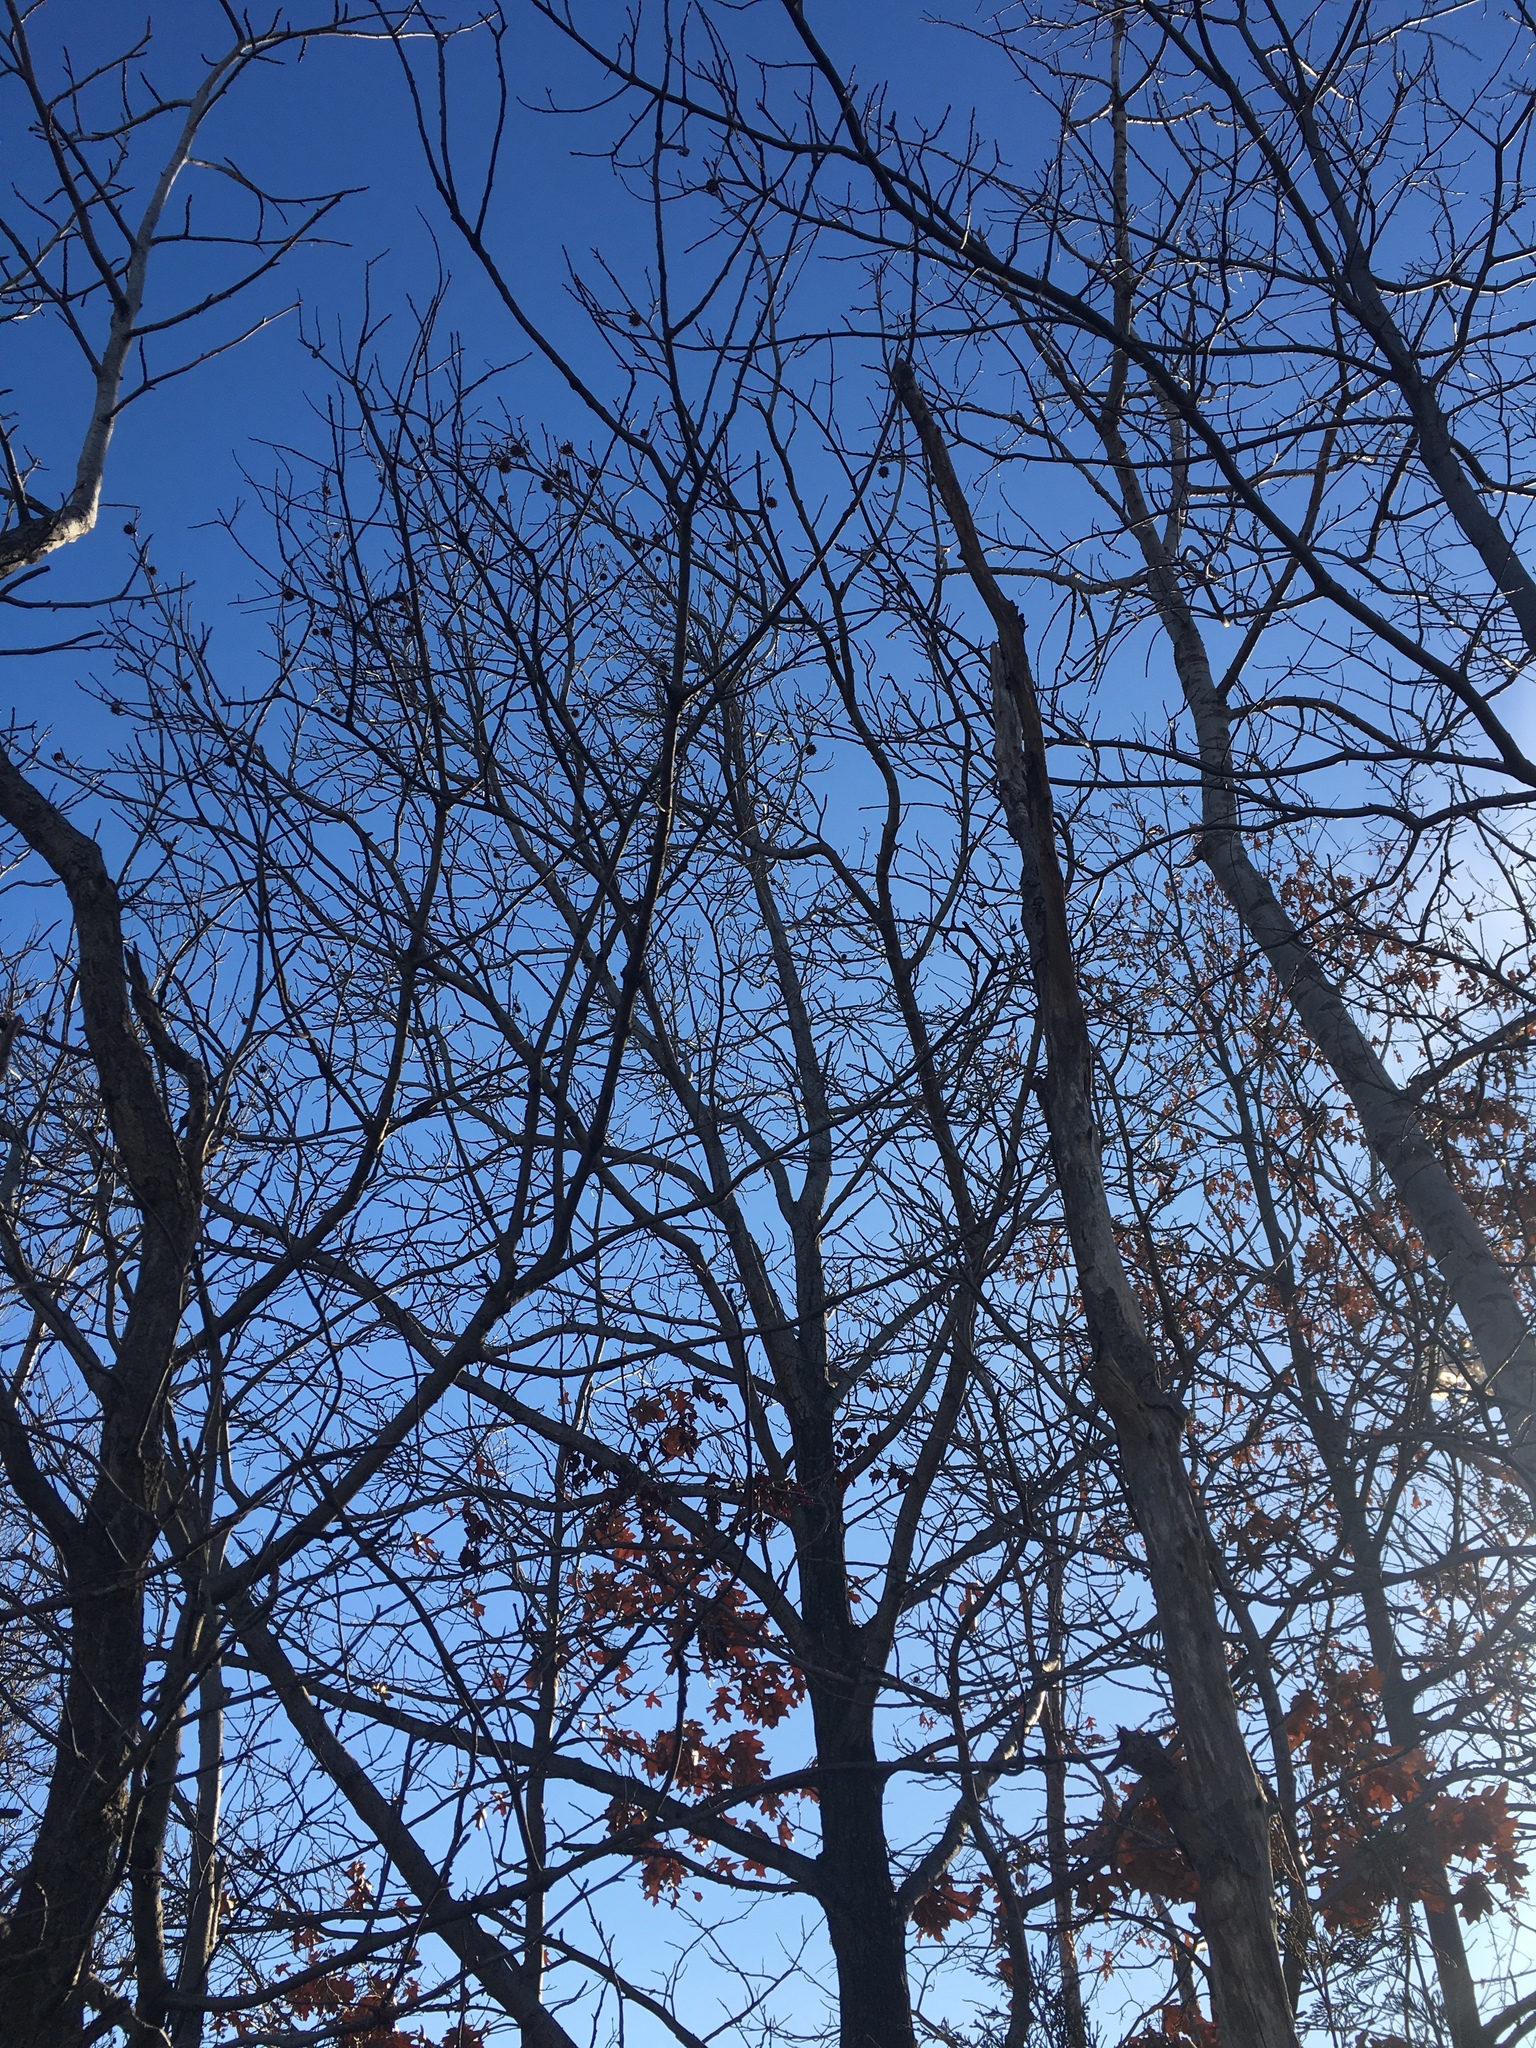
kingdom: Plantae
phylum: Tracheophyta
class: Magnoliopsida
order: Saxifragales
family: Altingiaceae
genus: Liquidambar
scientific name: Liquidambar styraciflua
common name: Sweet gum
